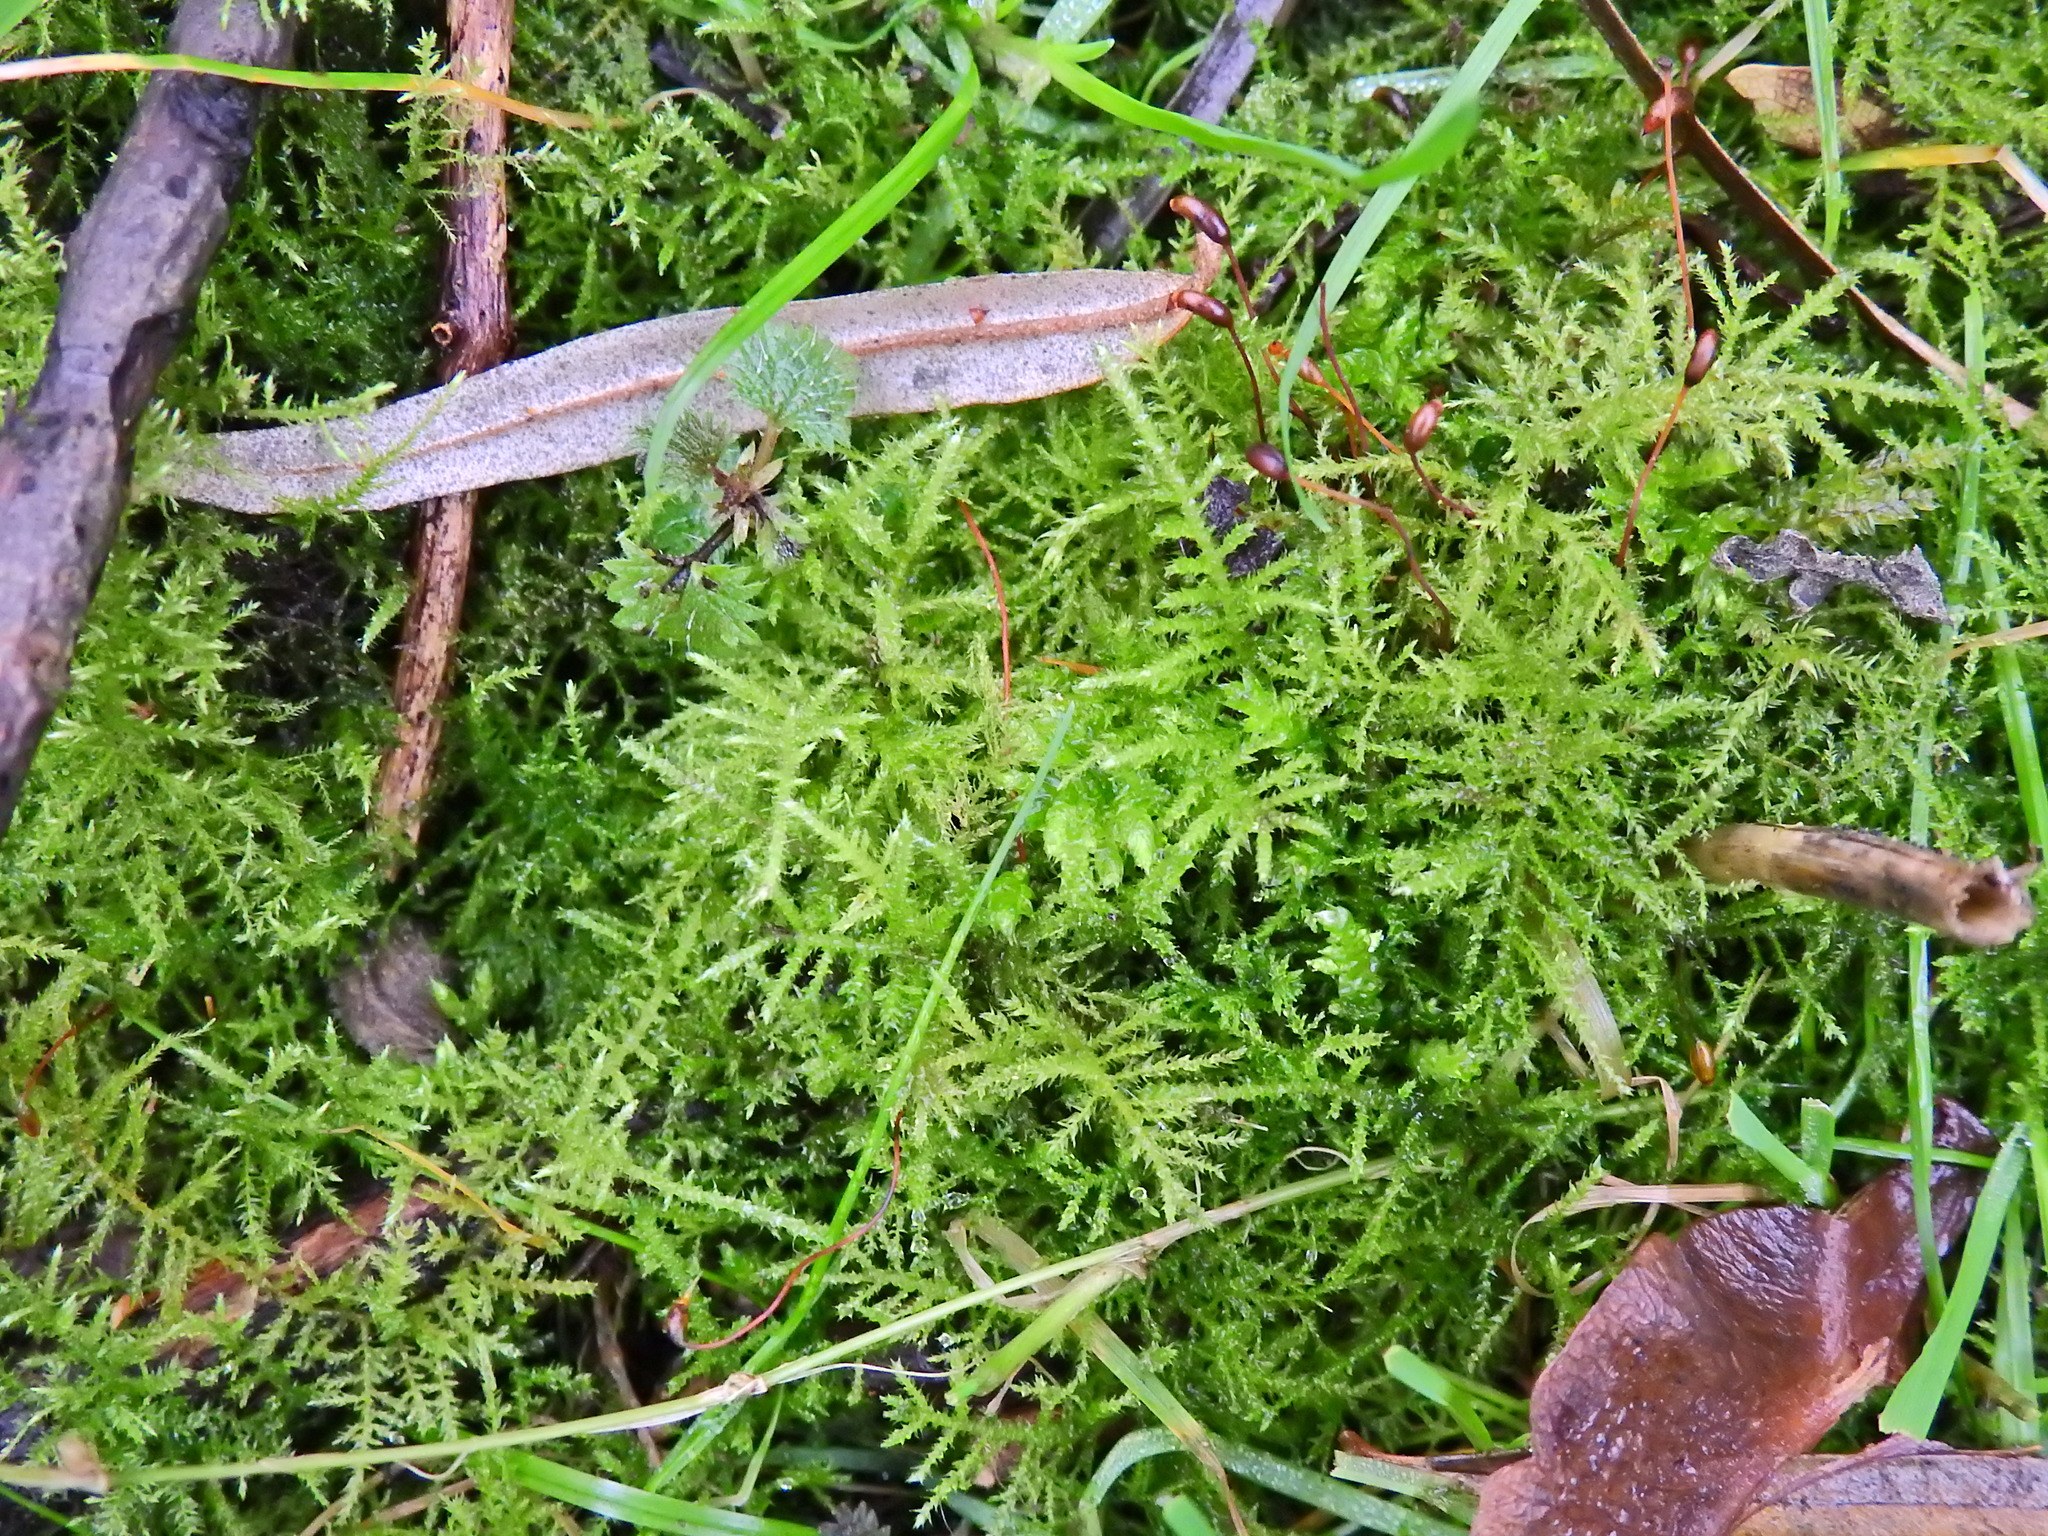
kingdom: Plantae
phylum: Bryophyta
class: Bryopsida
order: Hypnales
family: Brachytheciaceae
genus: Kindbergia
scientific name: Kindbergia praelonga
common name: Slender beaked moss
